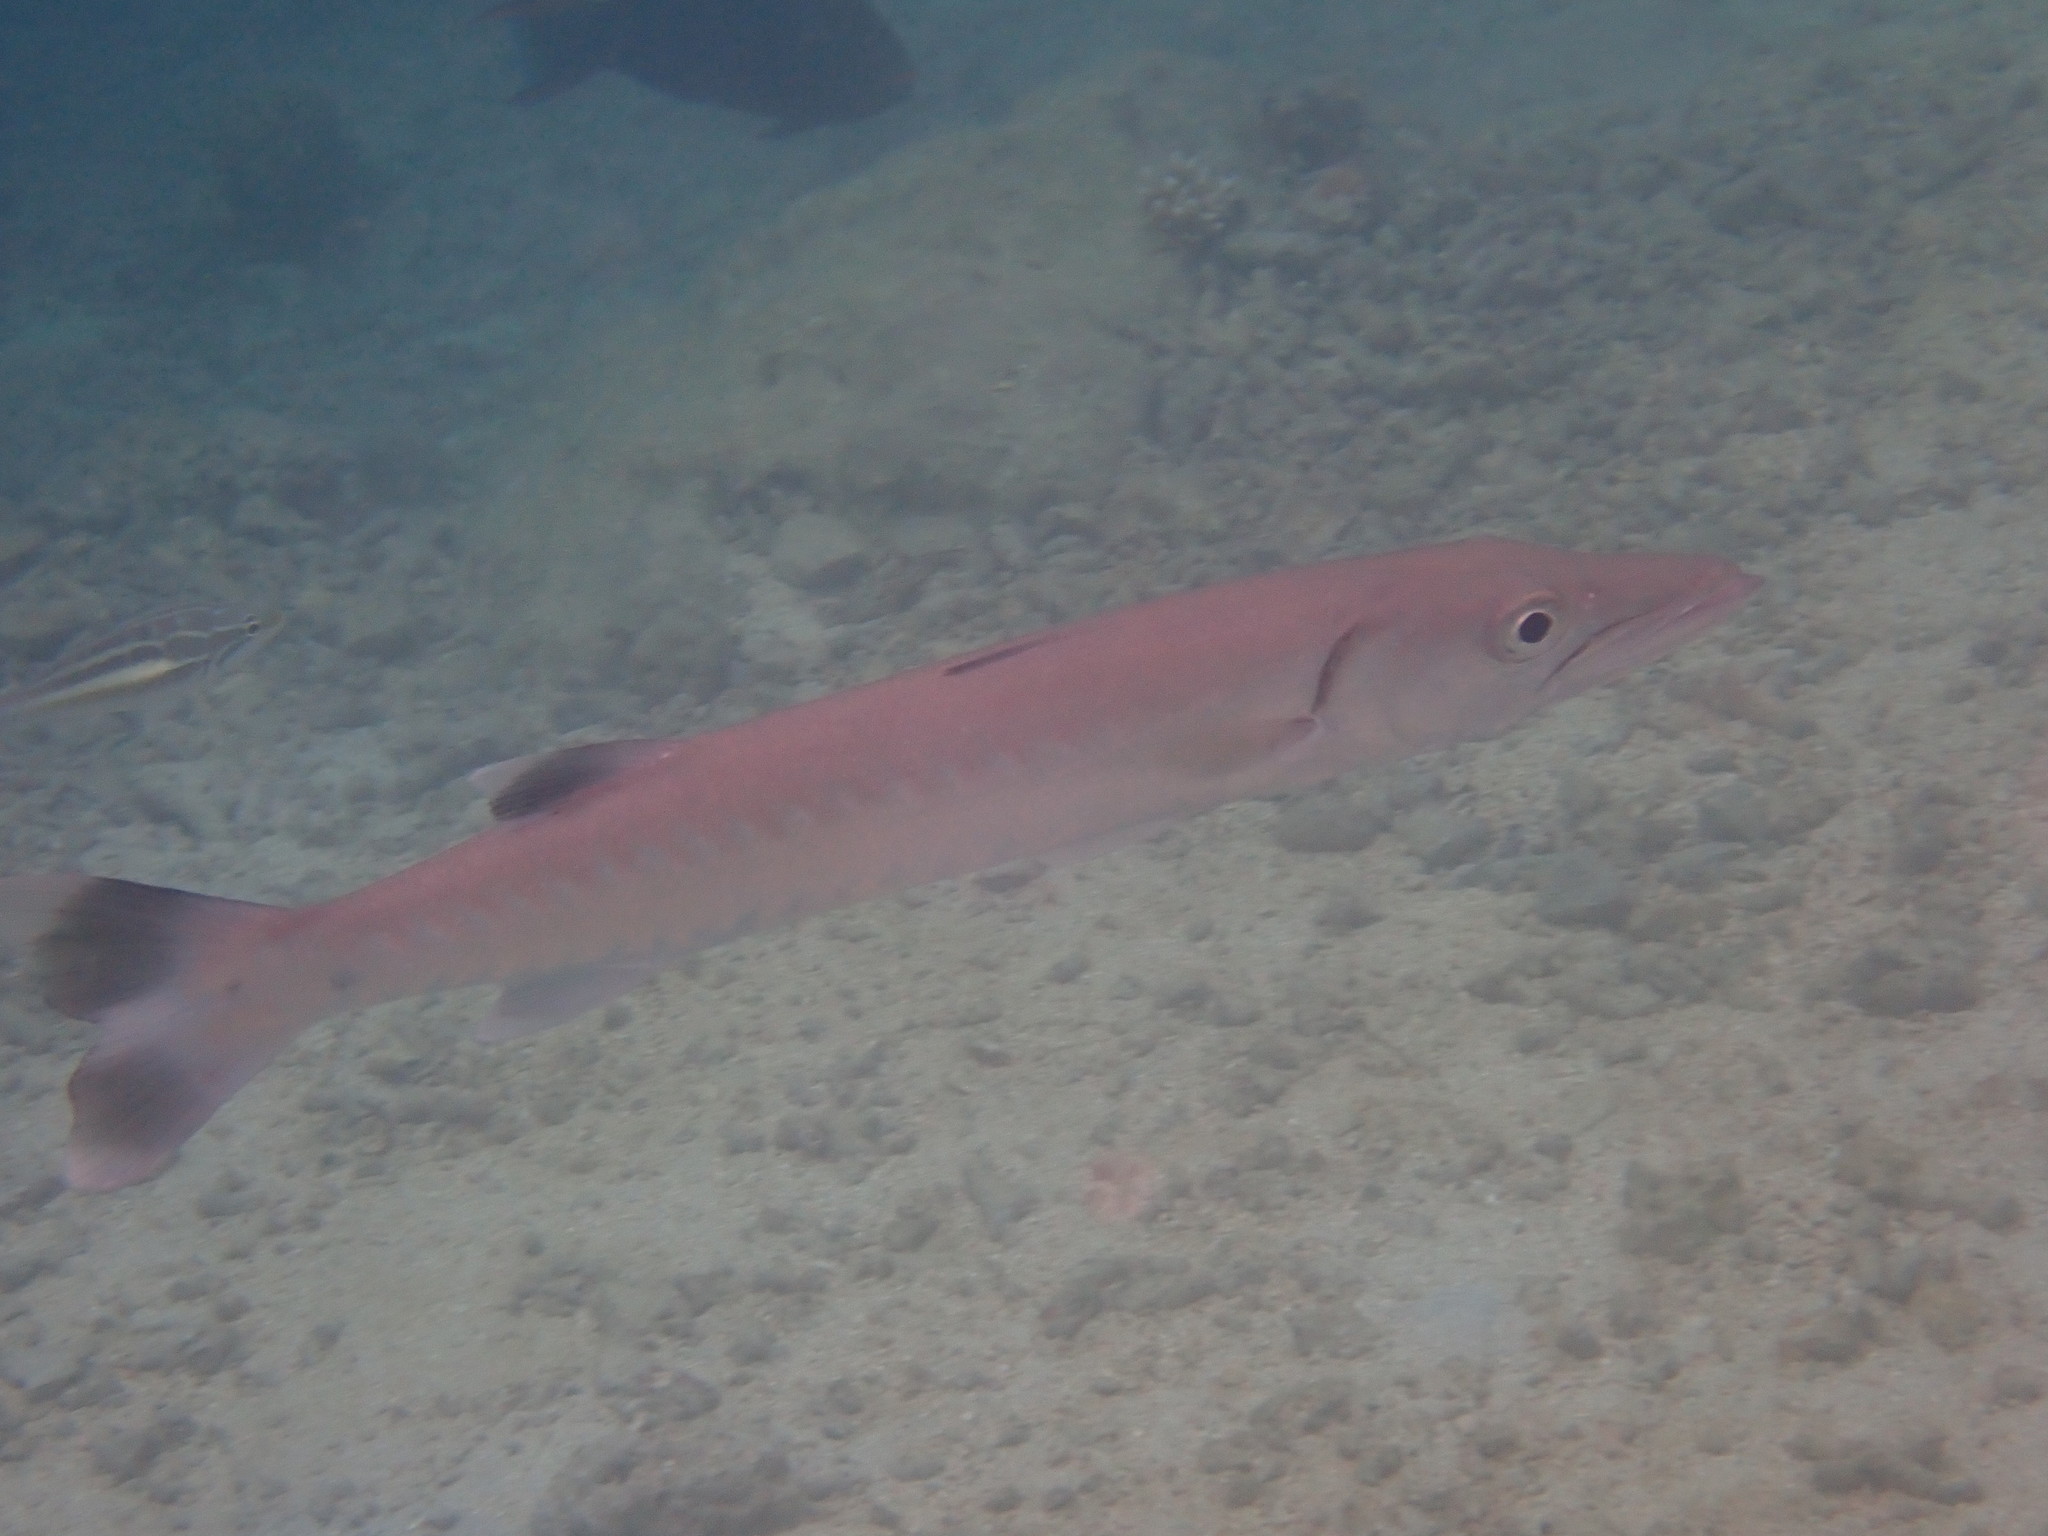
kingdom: Animalia
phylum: Chordata
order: Perciformes
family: Sphyraenidae
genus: Sphyraena
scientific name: Sphyraena barracuda
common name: Great barracuda
